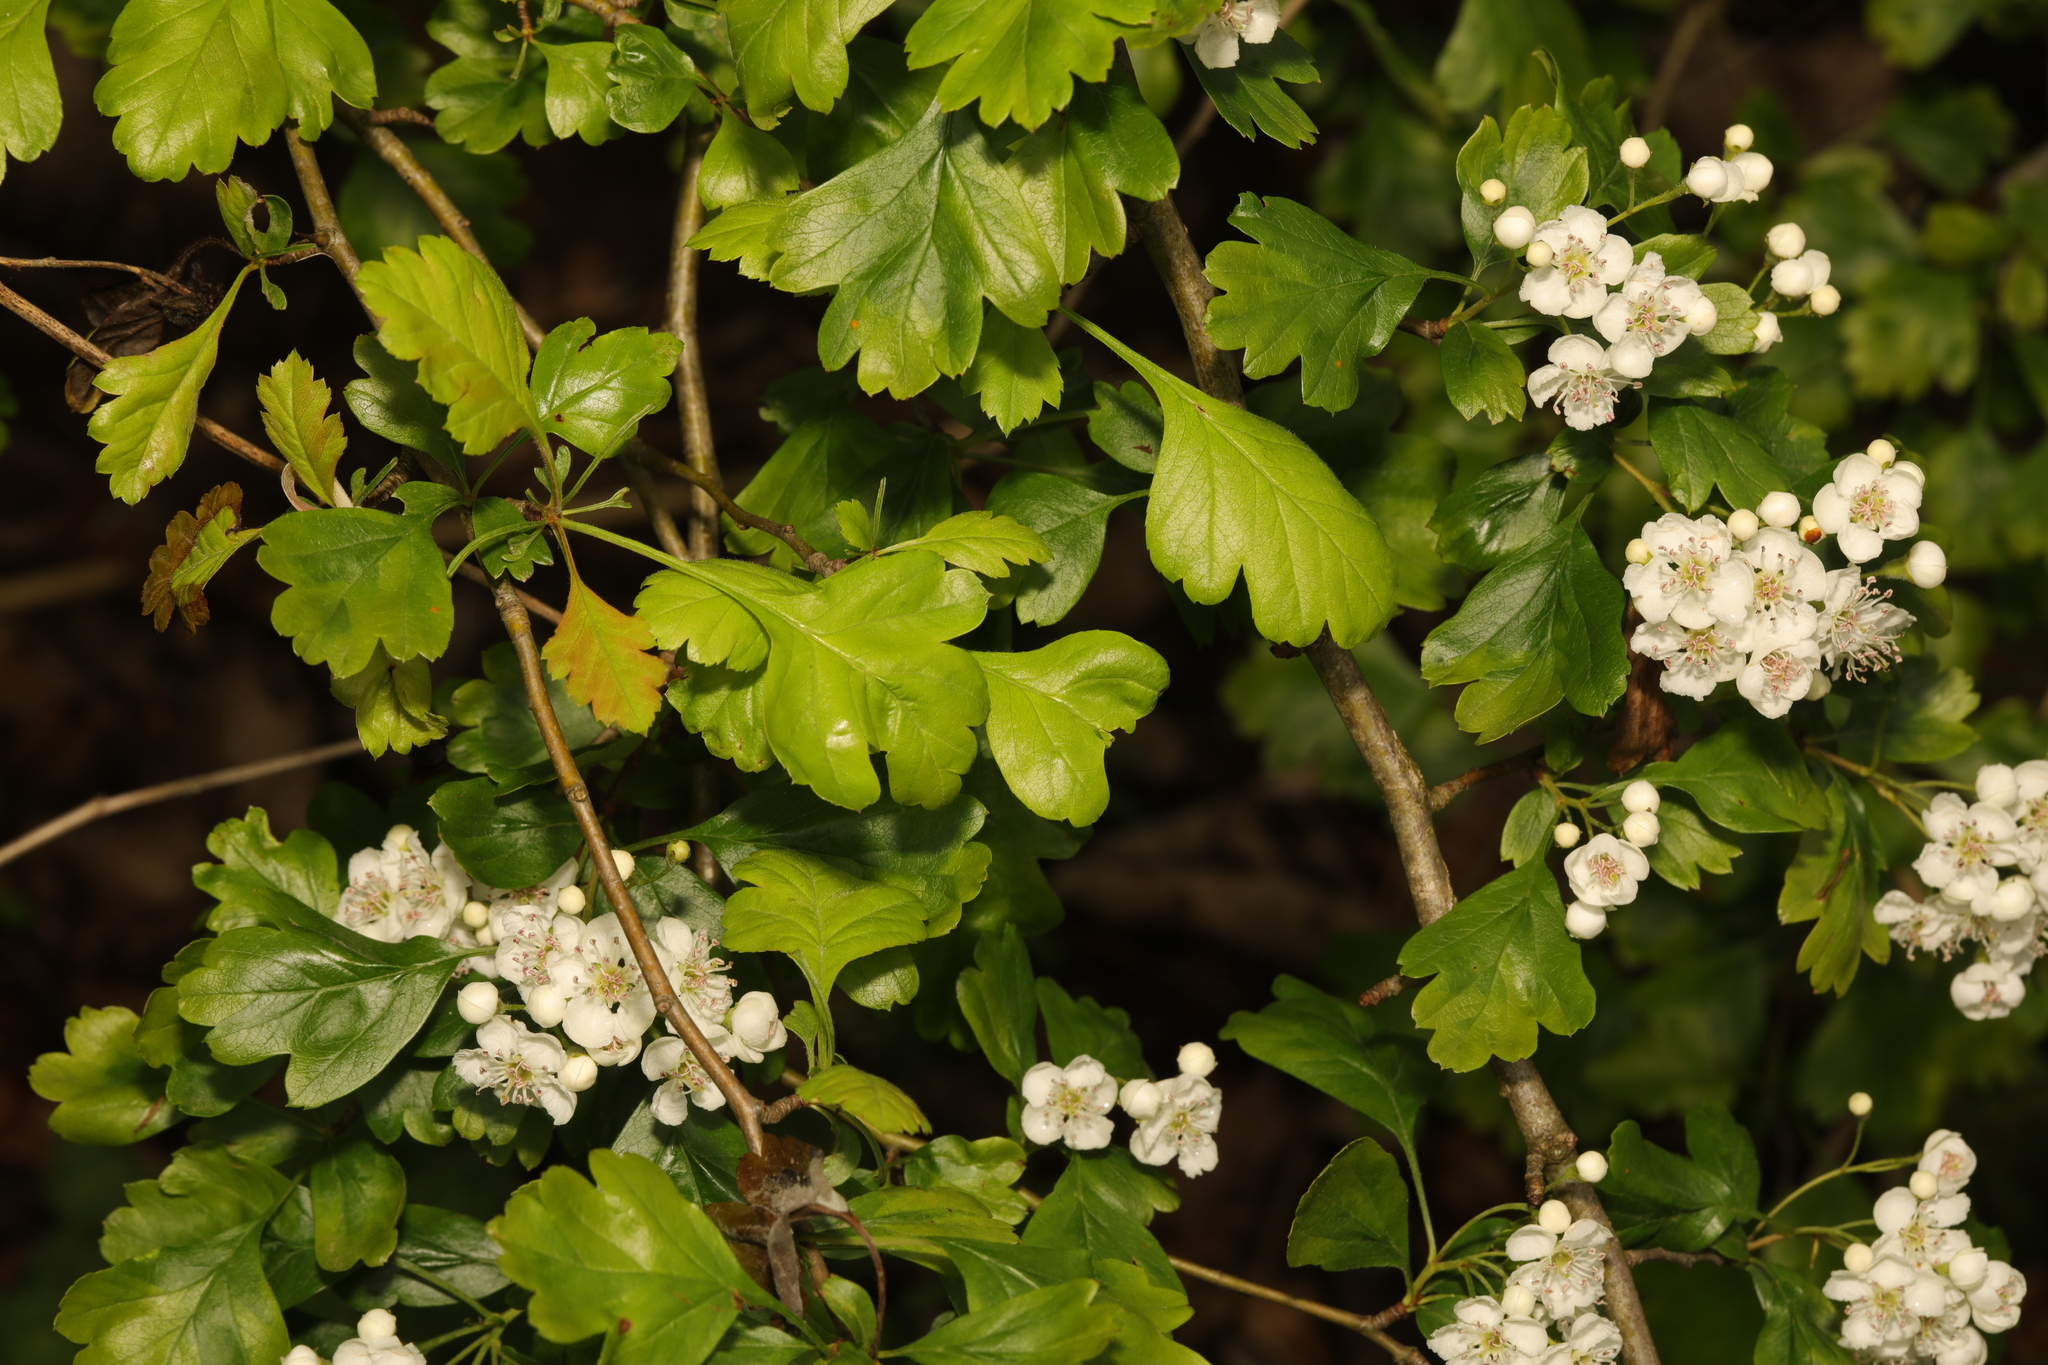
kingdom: Plantae
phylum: Tracheophyta
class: Magnoliopsida
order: Rosales
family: Rosaceae
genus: Crataegus
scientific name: Crataegus monogyna
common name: Hawthorn
